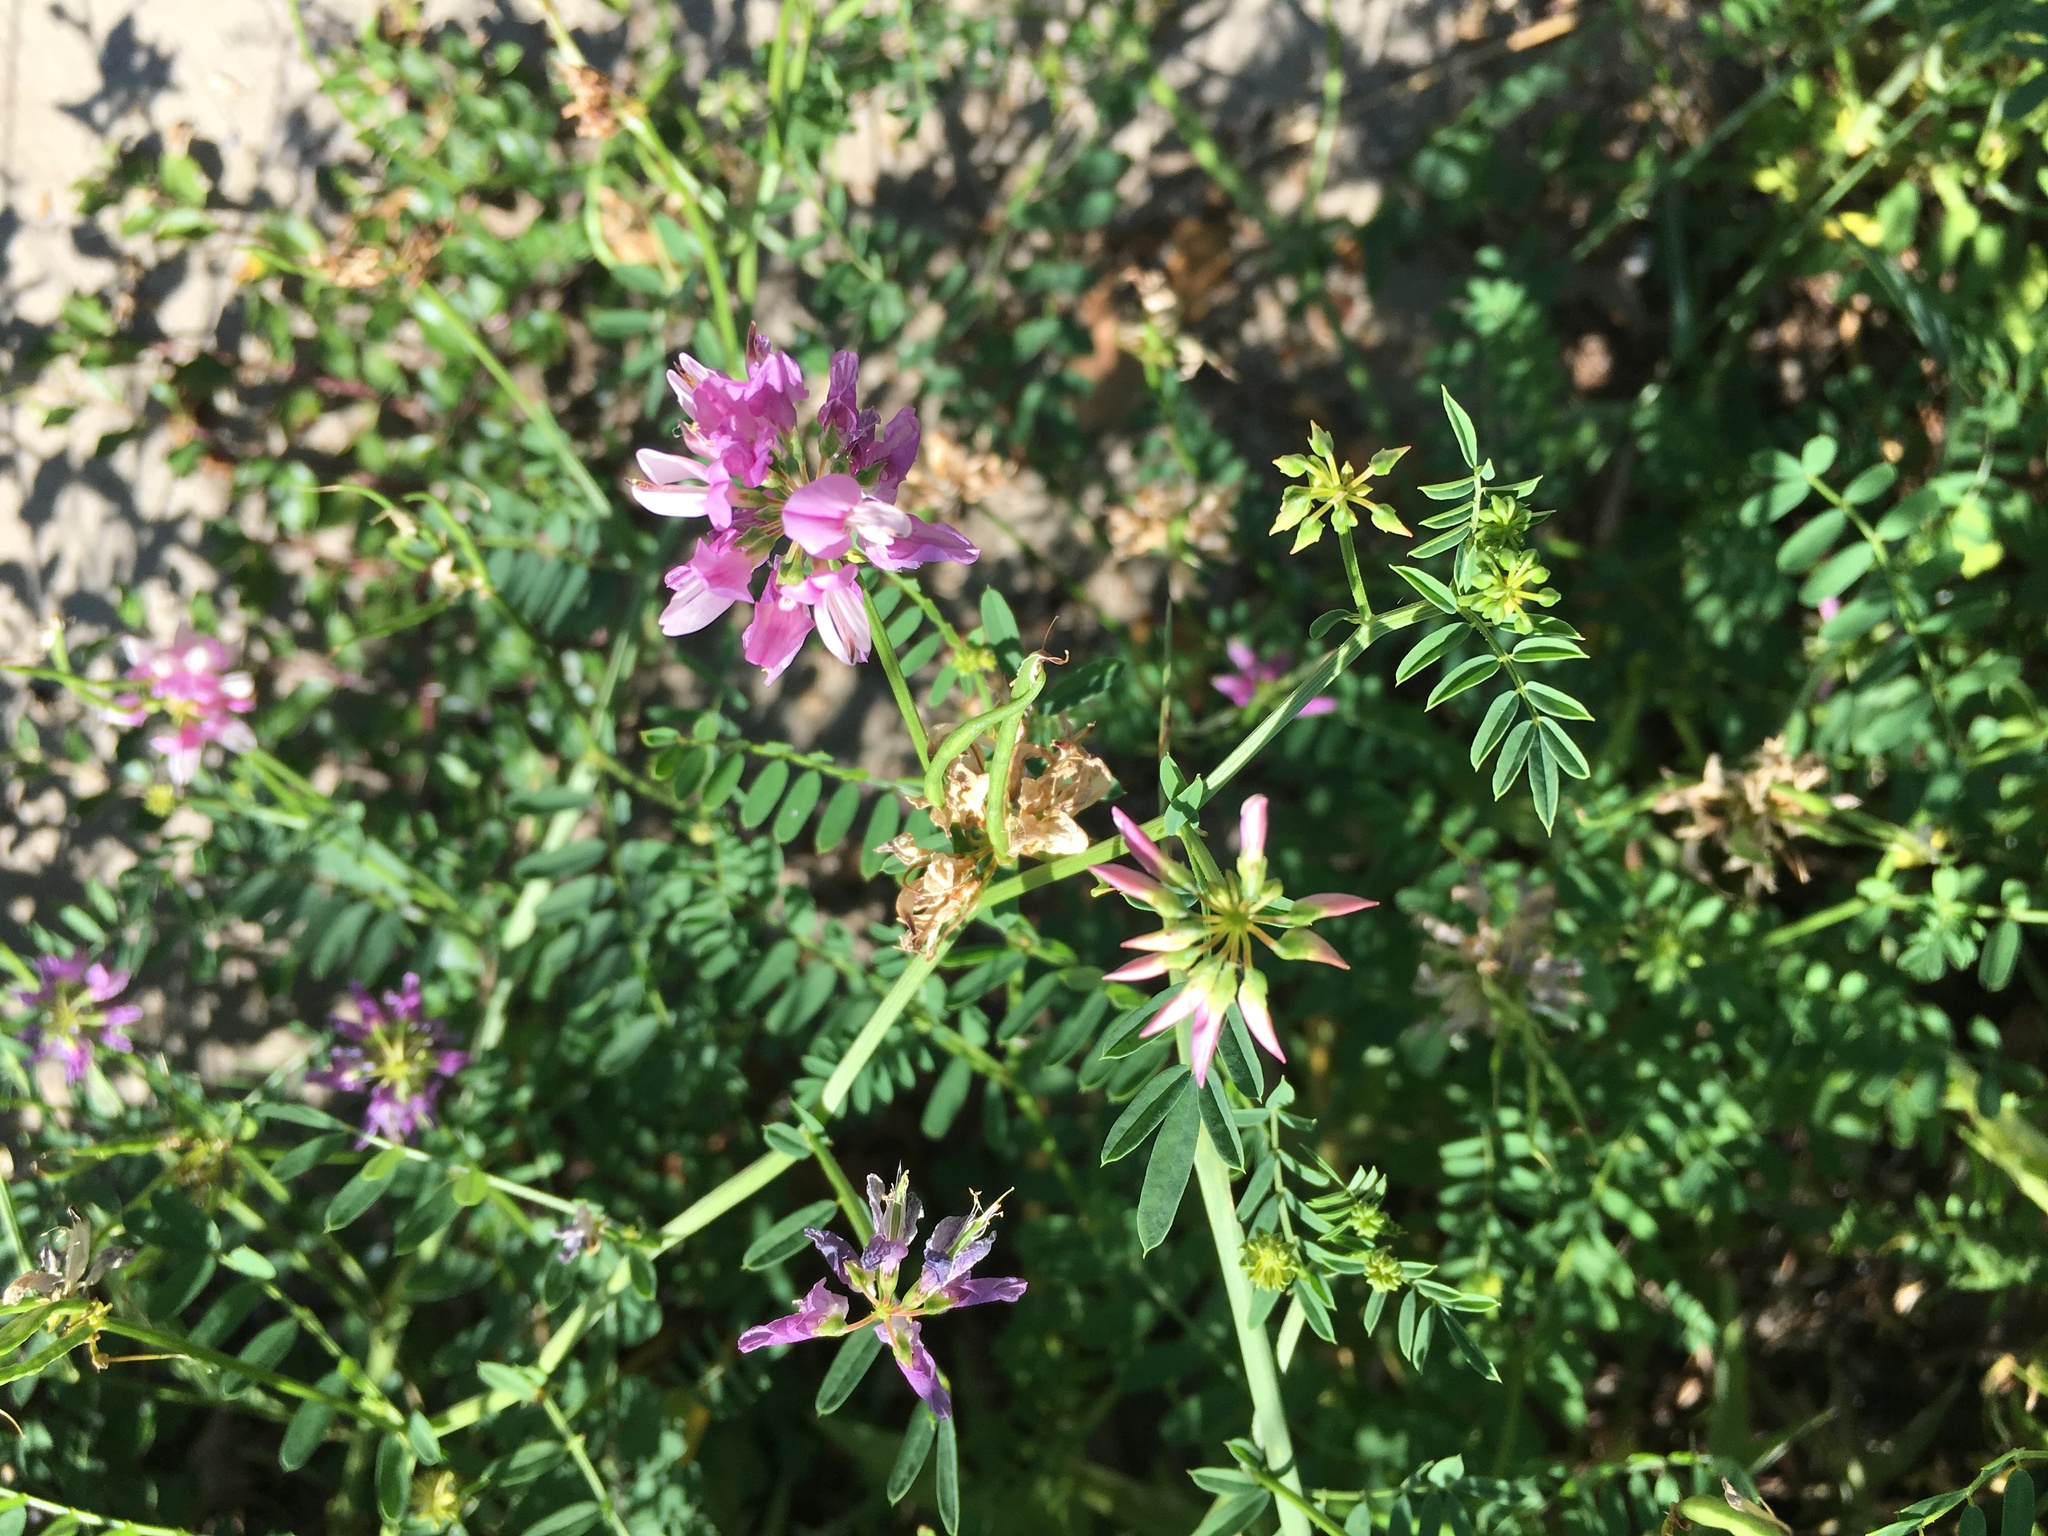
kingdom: Plantae
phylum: Tracheophyta
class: Magnoliopsida
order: Fabales
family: Fabaceae
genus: Coronilla
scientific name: Coronilla varia
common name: Crownvetch
